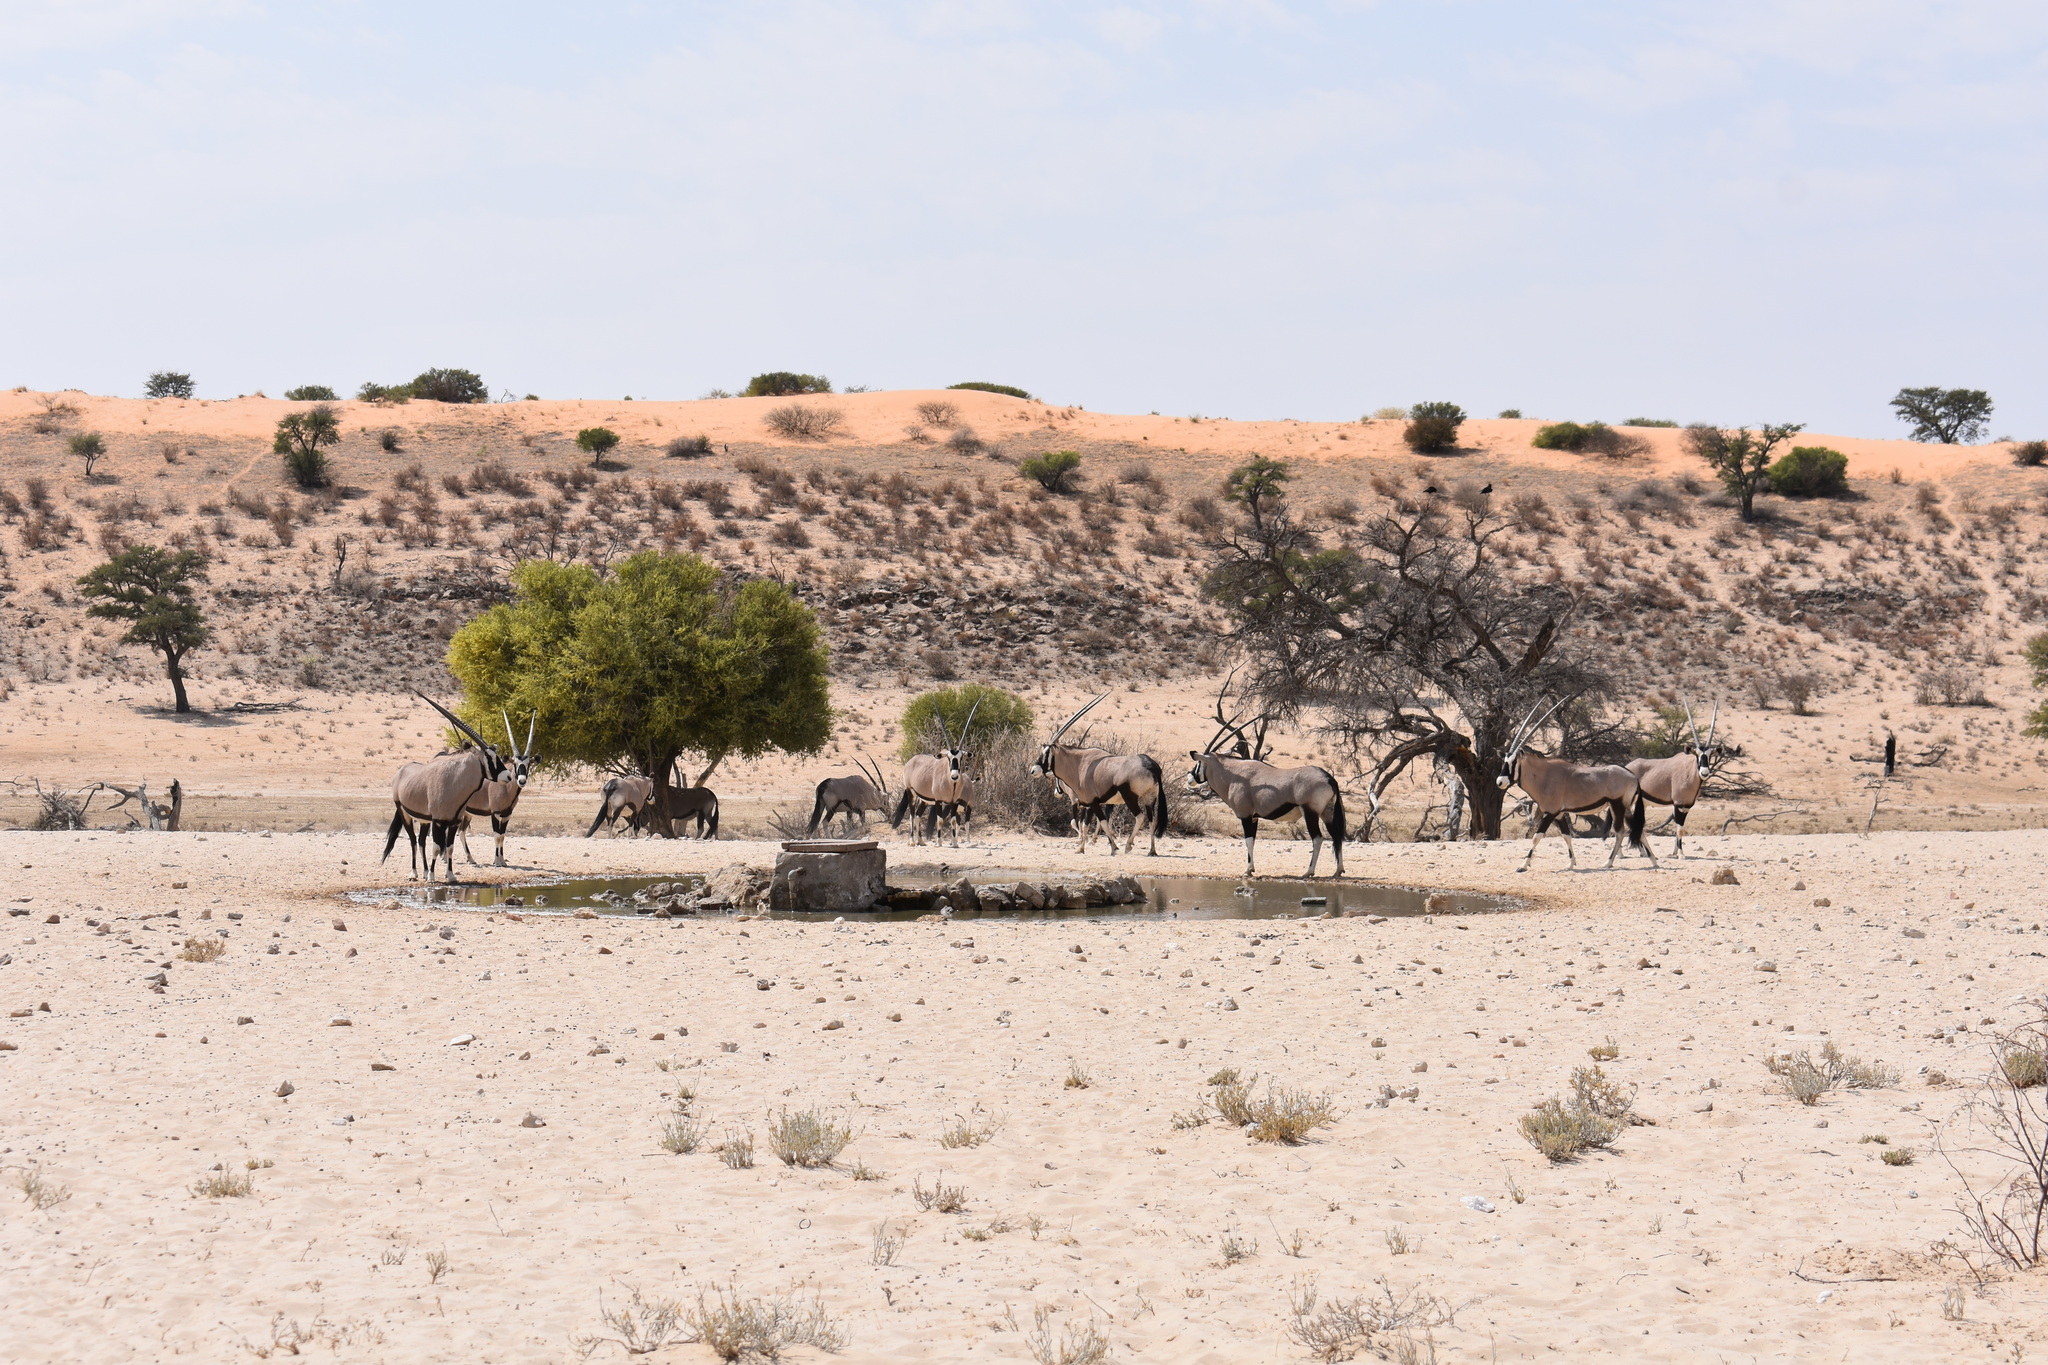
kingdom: Animalia
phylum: Chordata
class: Mammalia
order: Artiodactyla
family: Bovidae
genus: Oryx
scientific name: Oryx gazella
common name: Gemsbok
